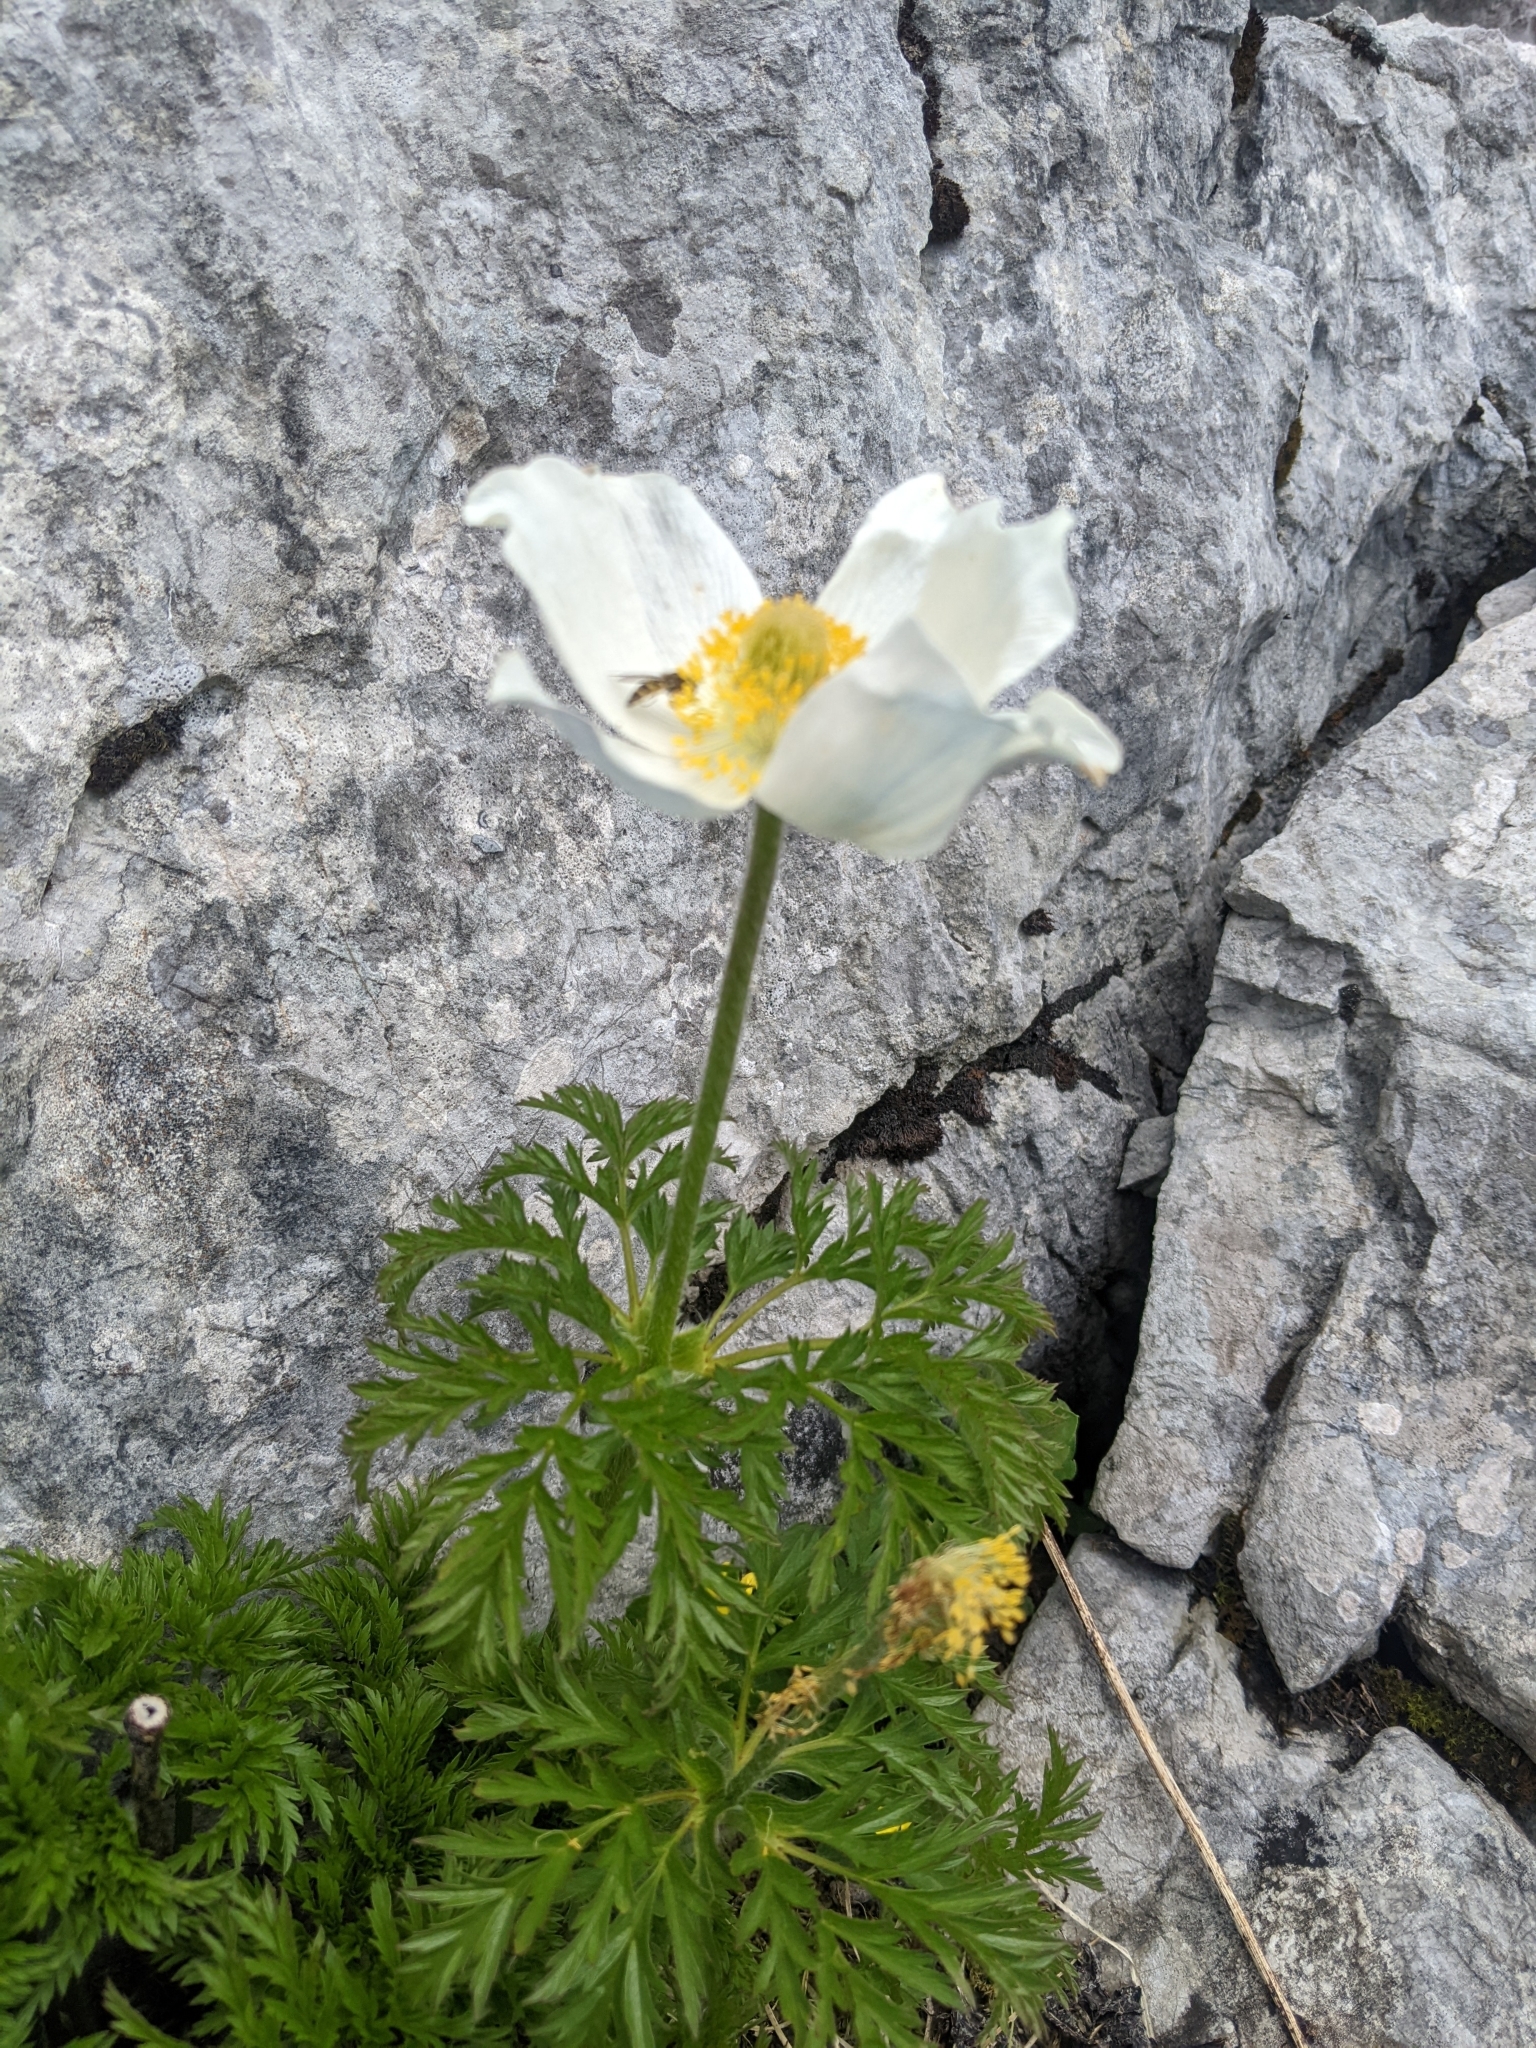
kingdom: Plantae
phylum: Tracheophyta
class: Magnoliopsida
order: Ranunculales
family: Ranunculaceae
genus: Pulsatilla
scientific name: Pulsatilla alpina
